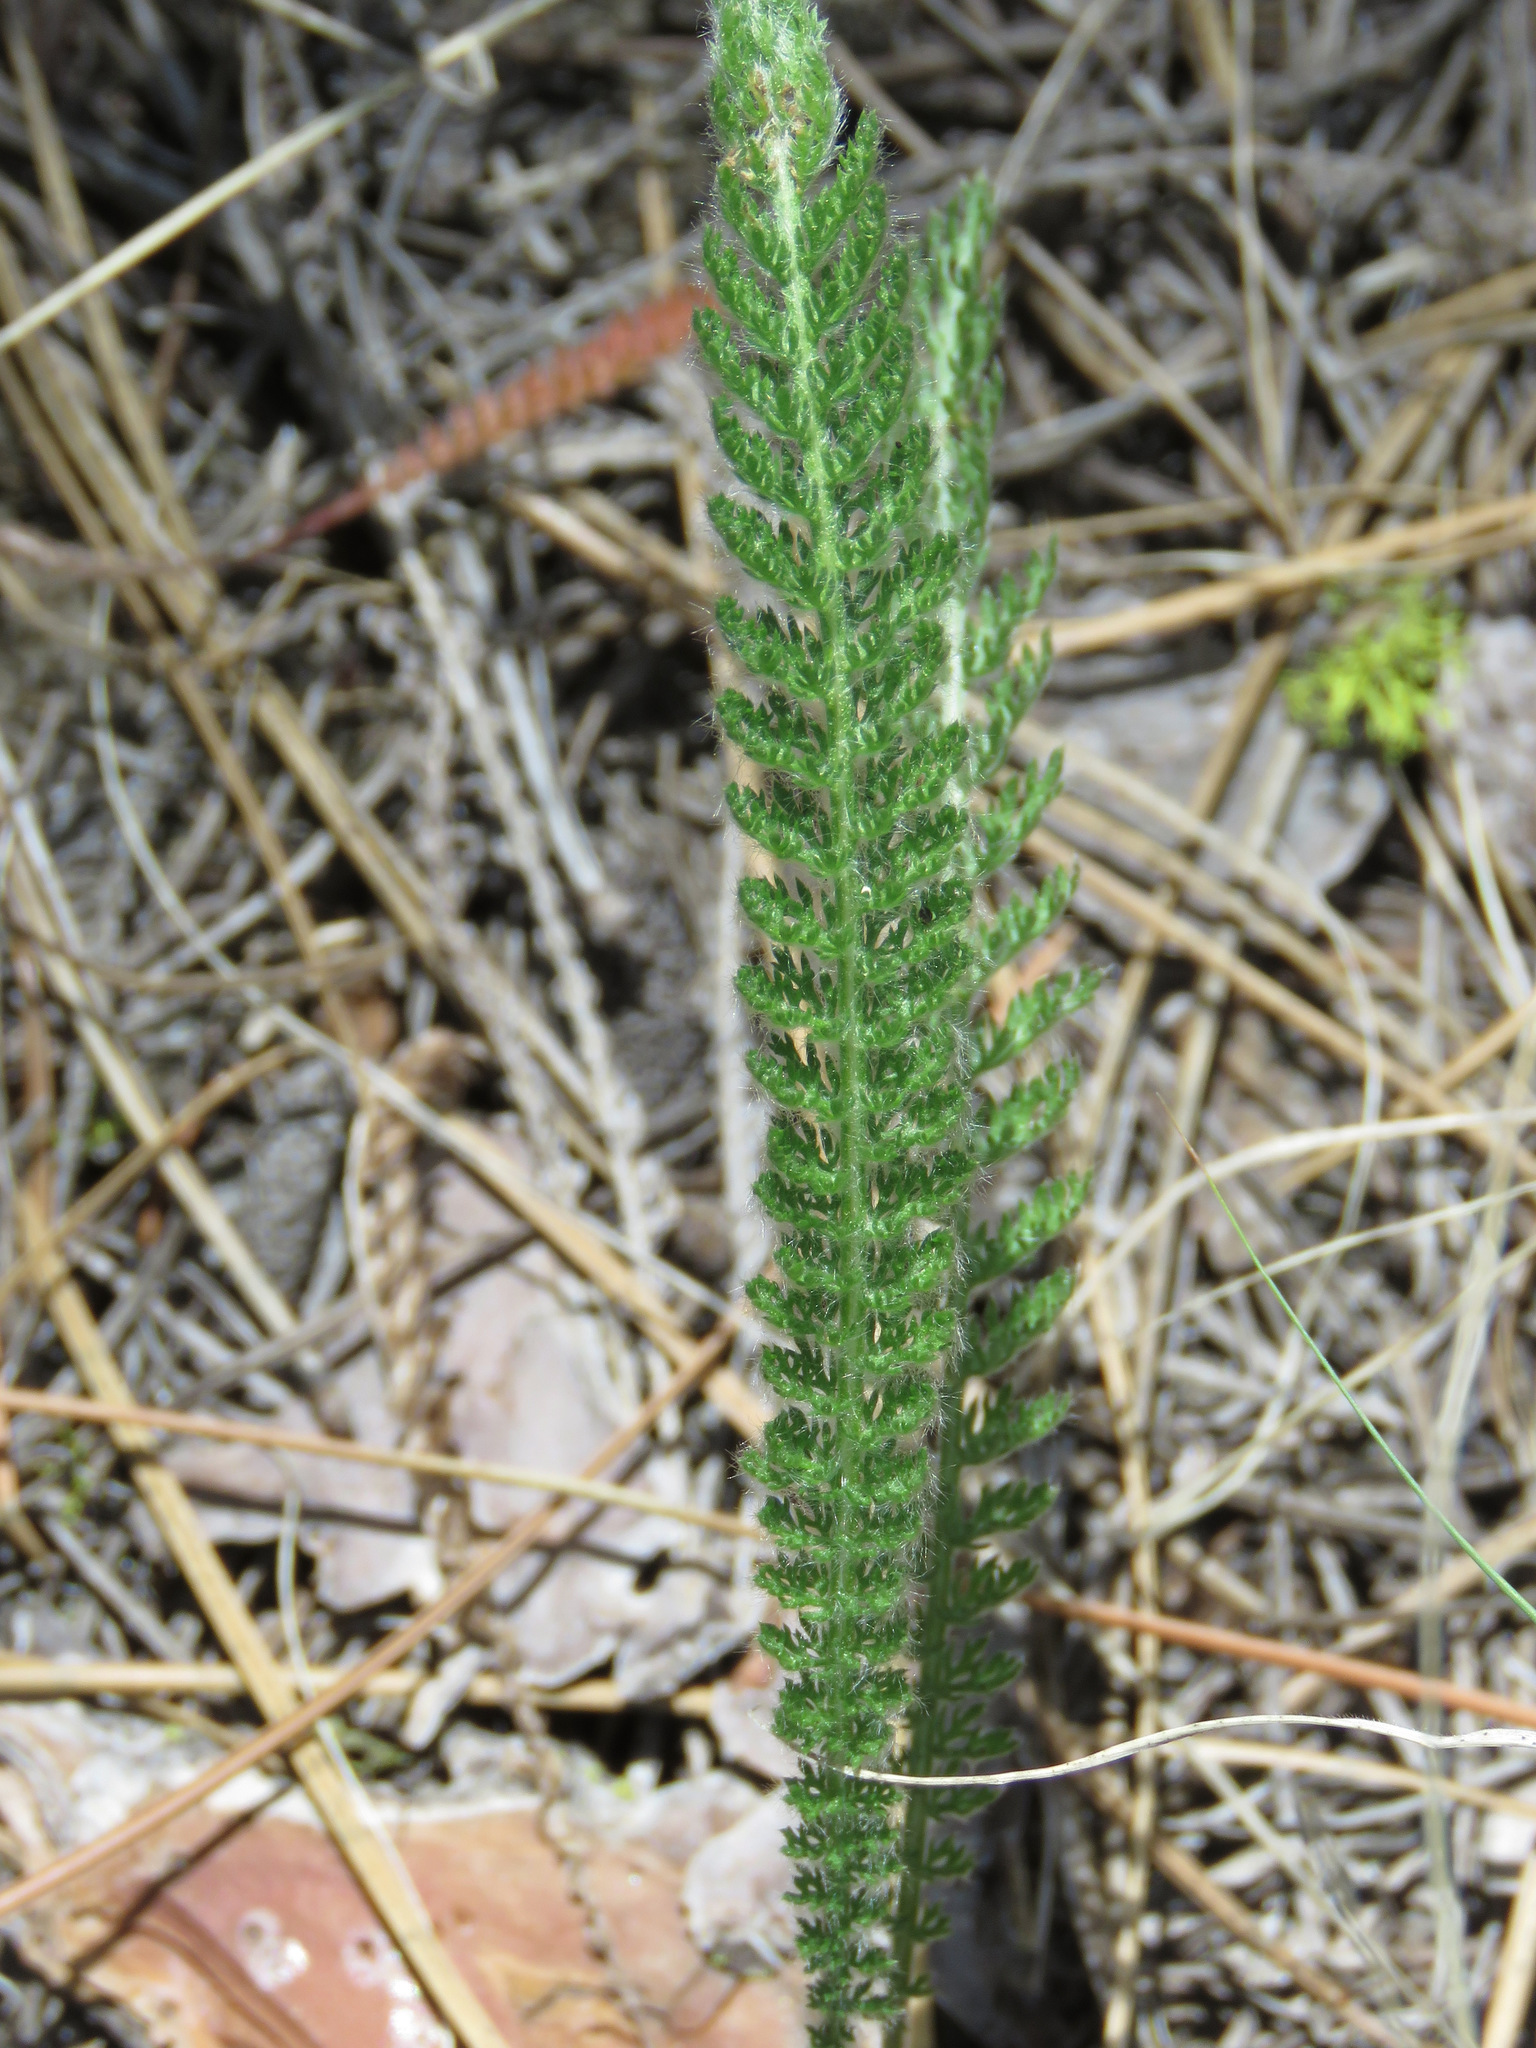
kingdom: Plantae
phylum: Tracheophyta
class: Magnoliopsida
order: Asterales
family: Asteraceae
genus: Achillea
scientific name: Achillea millefolium
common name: Yarrow
